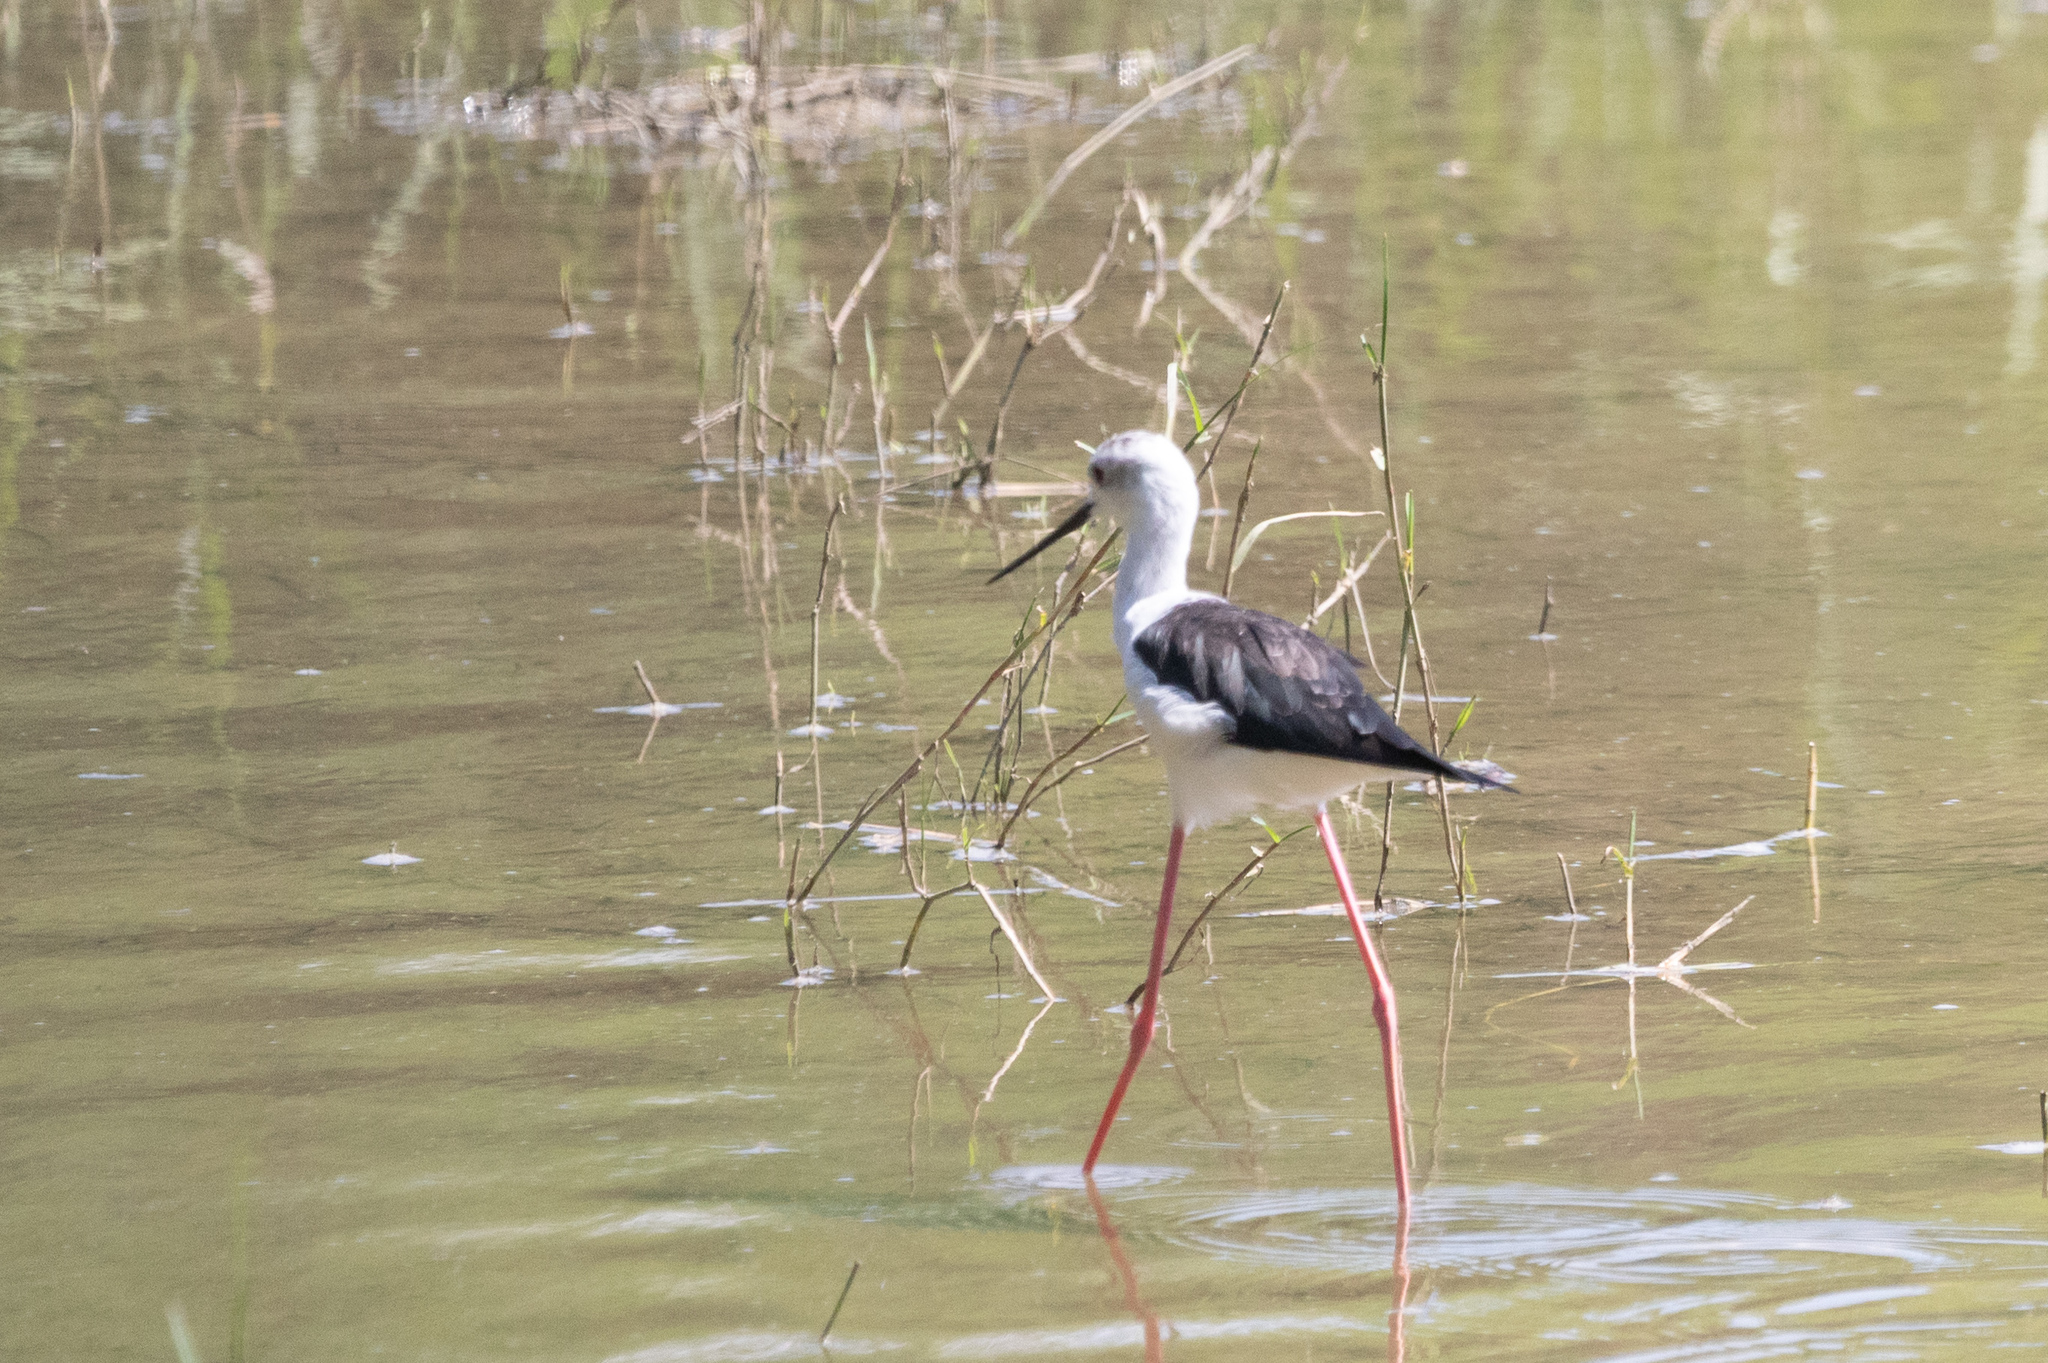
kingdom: Animalia
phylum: Chordata
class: Aves
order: Charadriiformes
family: Recurvirostridae
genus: Himantopus
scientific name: Himantopus himantopus
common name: Black-winged stilt
